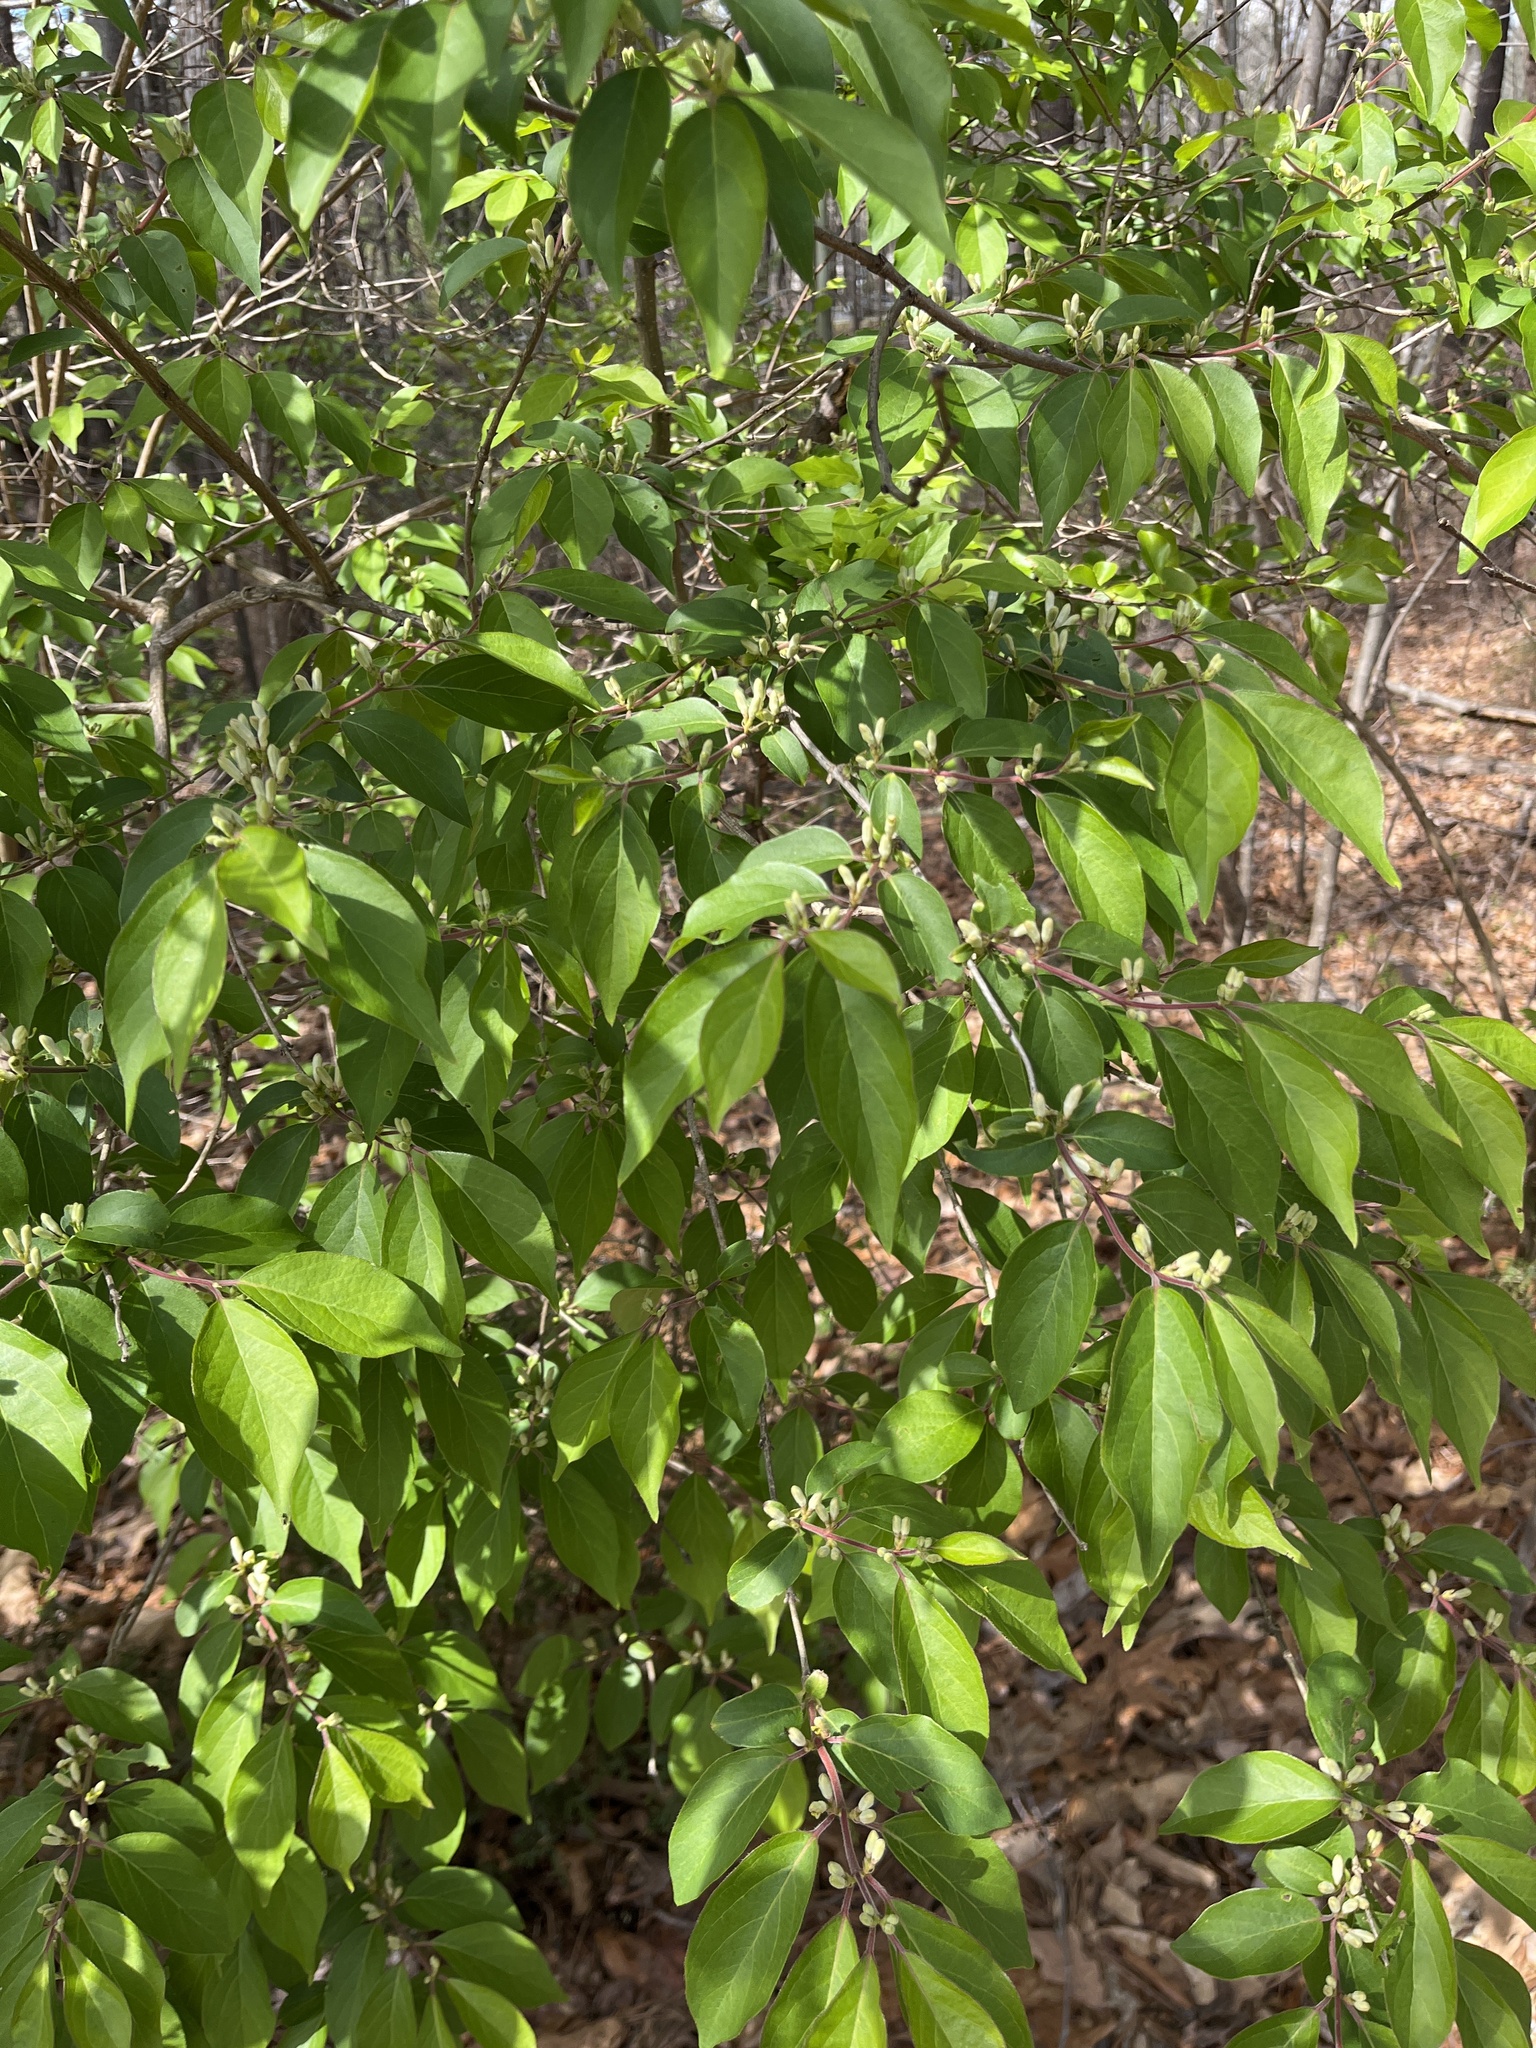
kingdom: Plantae
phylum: Tracheophyta
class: Magnoliopsida
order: Dipsacales
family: Caprifoliaceae
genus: Lonicera
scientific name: Lonicera maackii
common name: Amur honeysuckle
